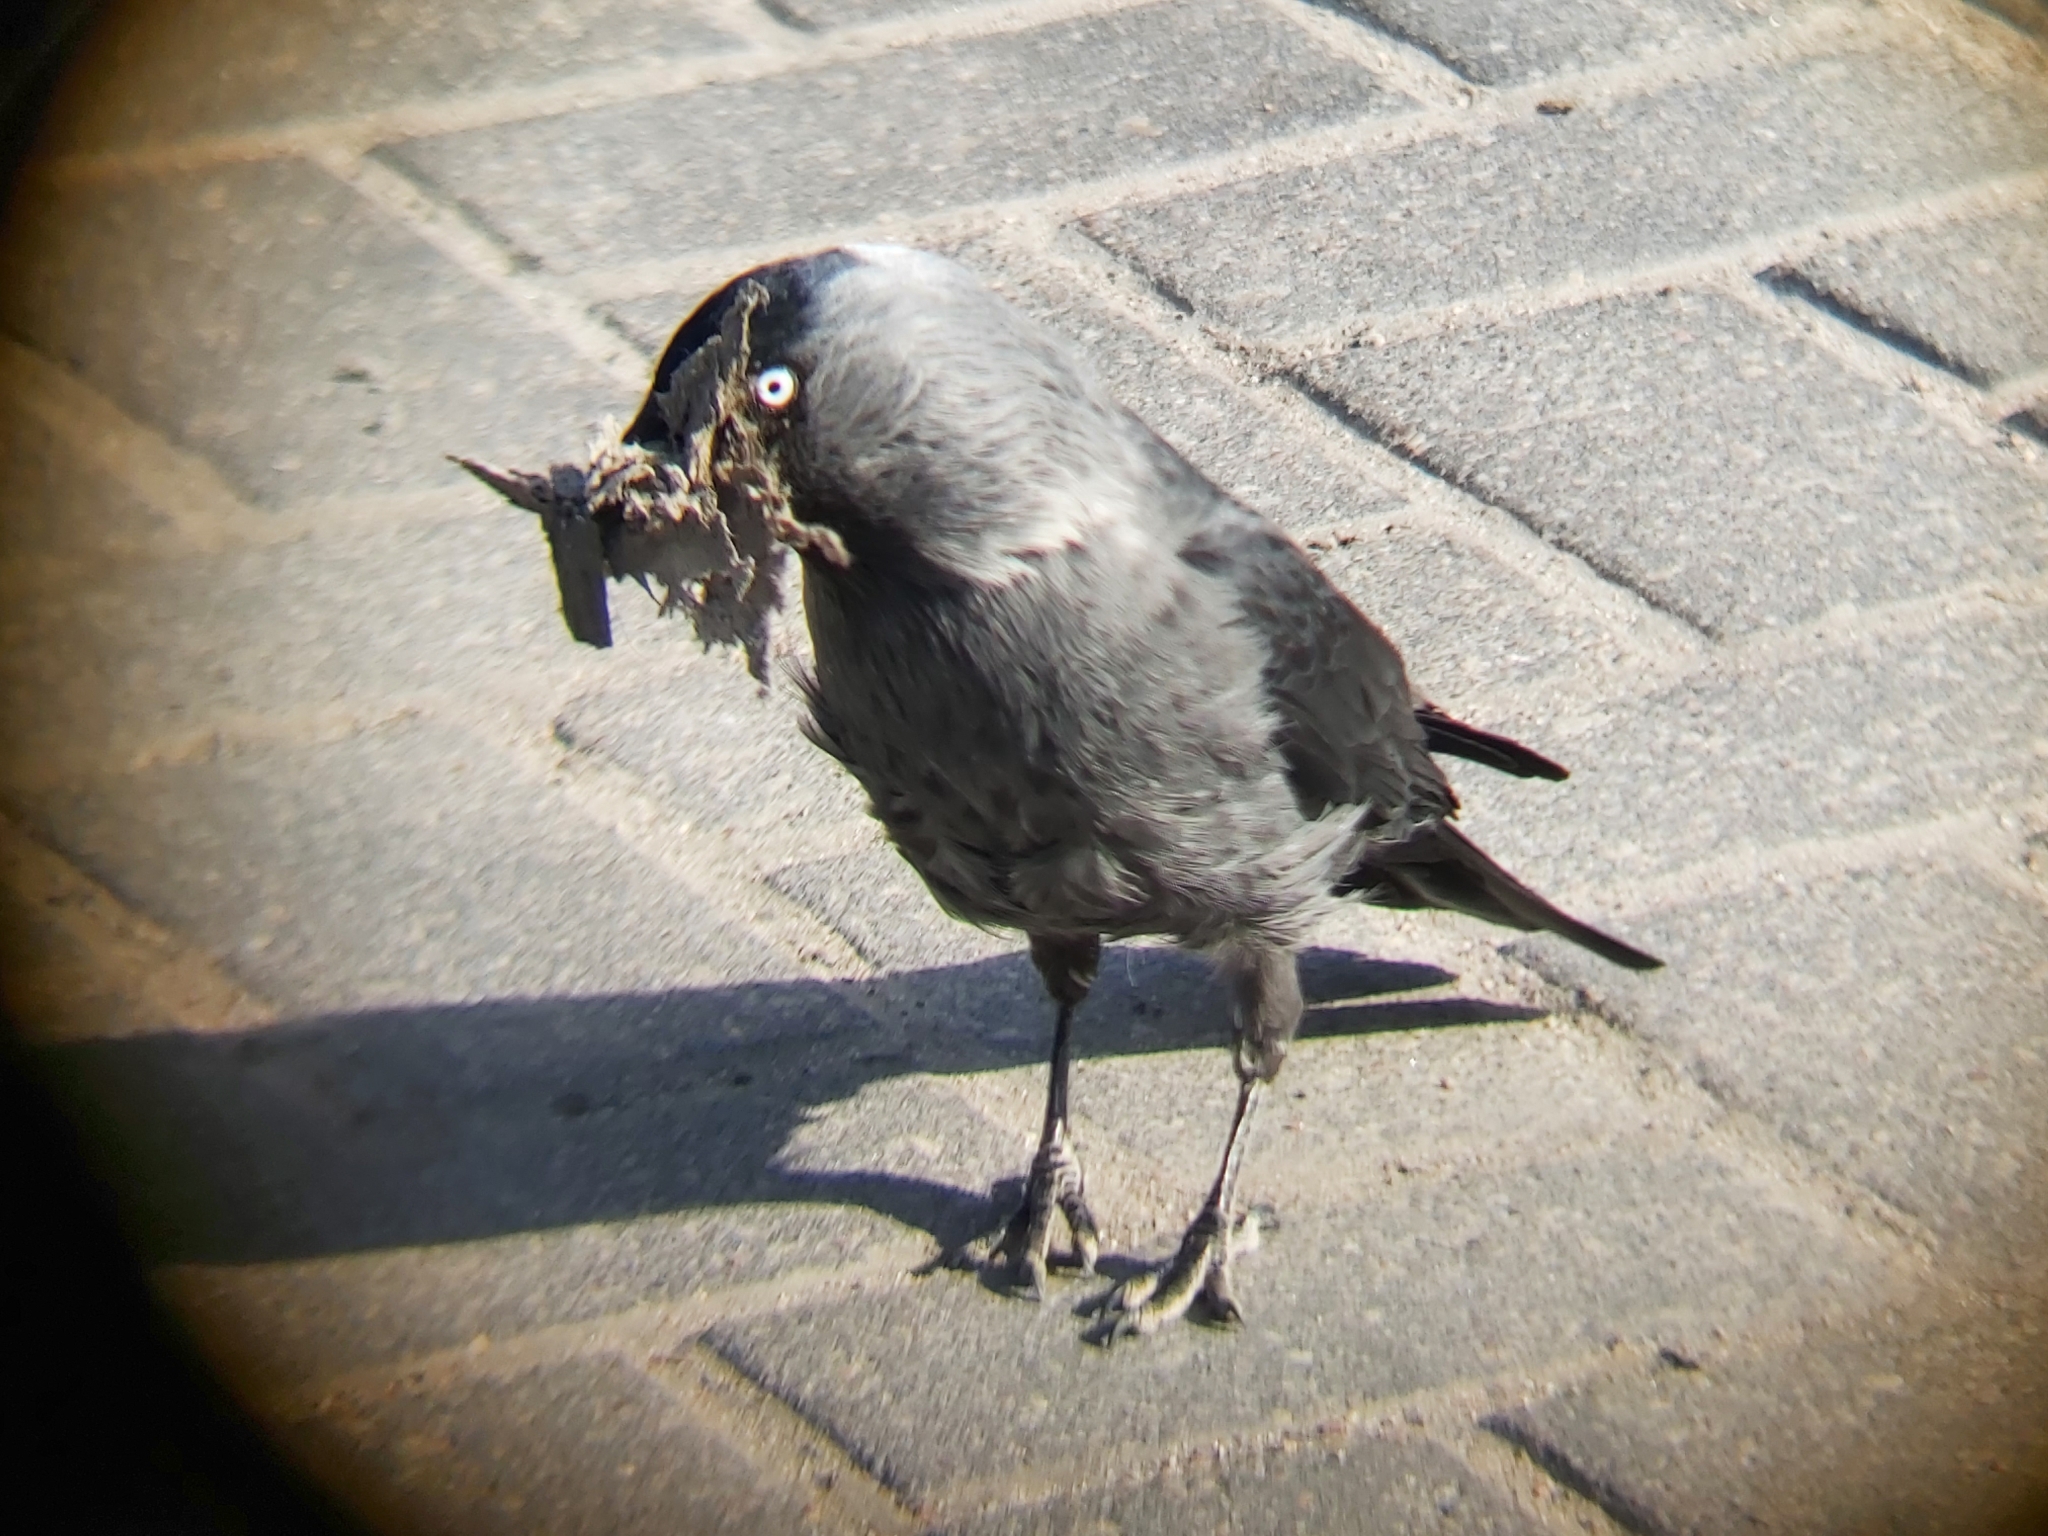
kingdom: Animalia
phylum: Chordata
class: Aves
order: Passeriformes
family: Corvidae
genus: Coloeus
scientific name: Coloeus monedula
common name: Western jackdaw
